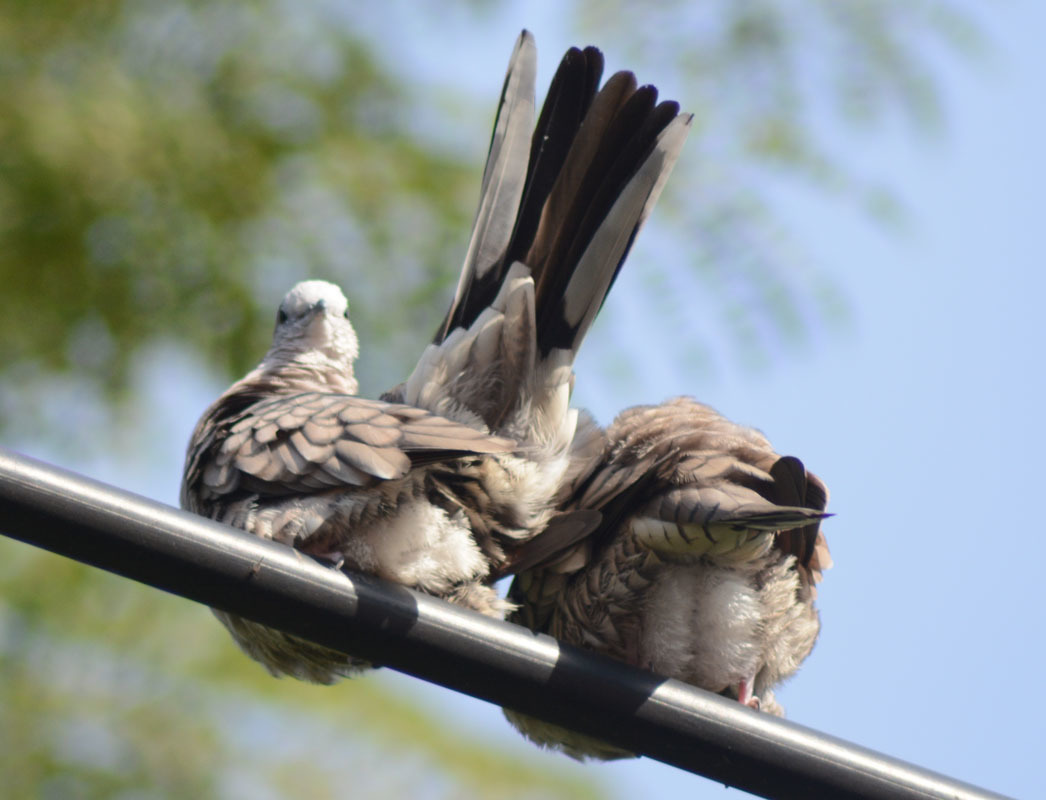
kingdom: Animalia
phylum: Chordata
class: Aves
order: Columbiformes
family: Columbidae
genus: Columbina
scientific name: Columbina inca
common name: Inca dove
